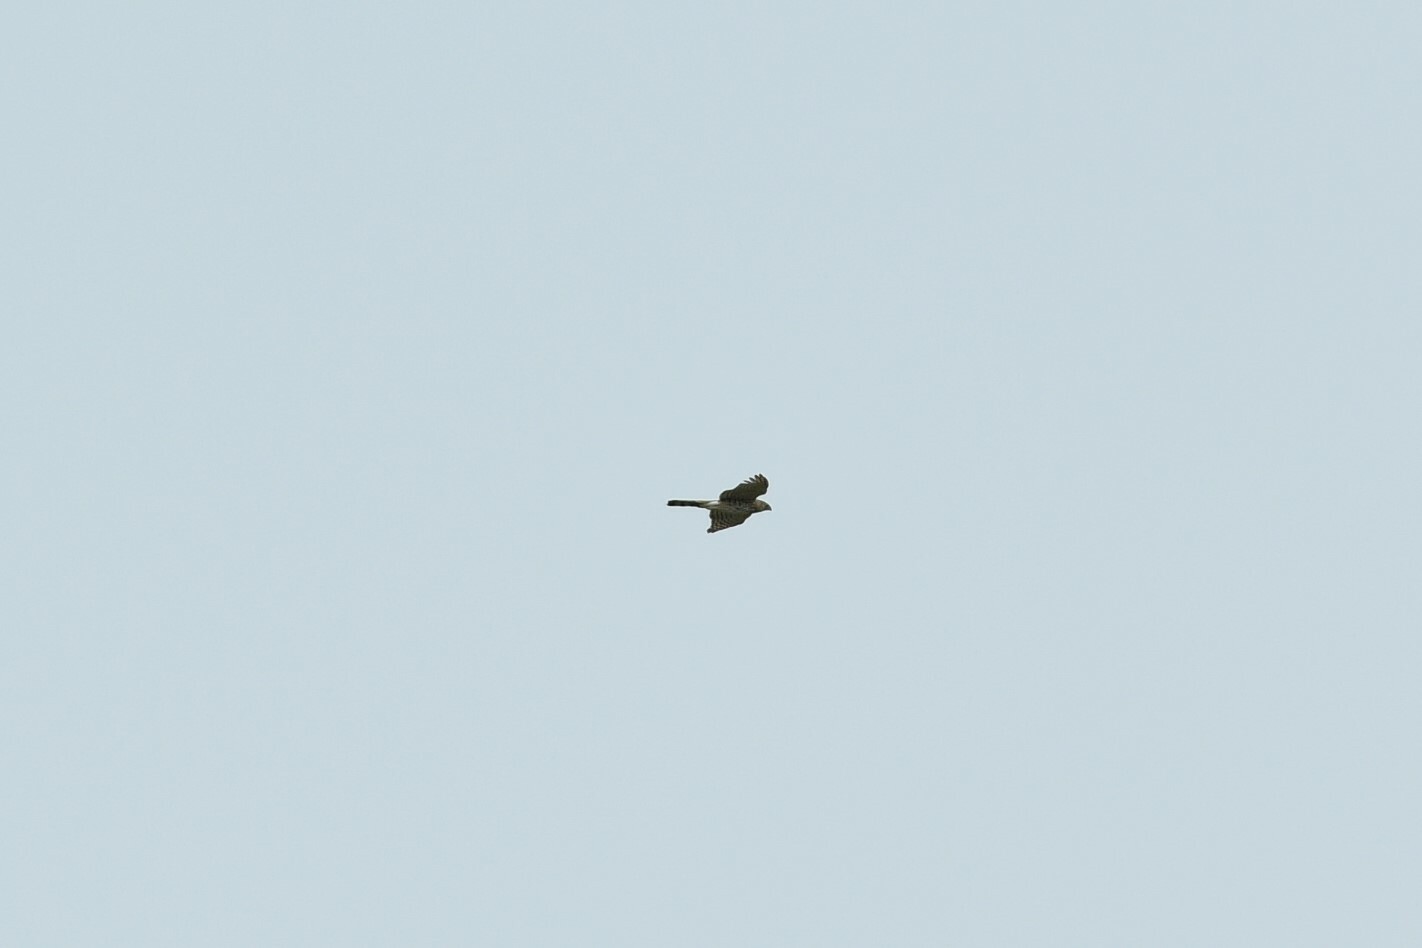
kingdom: Animalia
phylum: Chordata
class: Aves
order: Accipitriformes
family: Accipitridae
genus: Accipiter
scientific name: Accipiter cooperii
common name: Cooper's hawk
